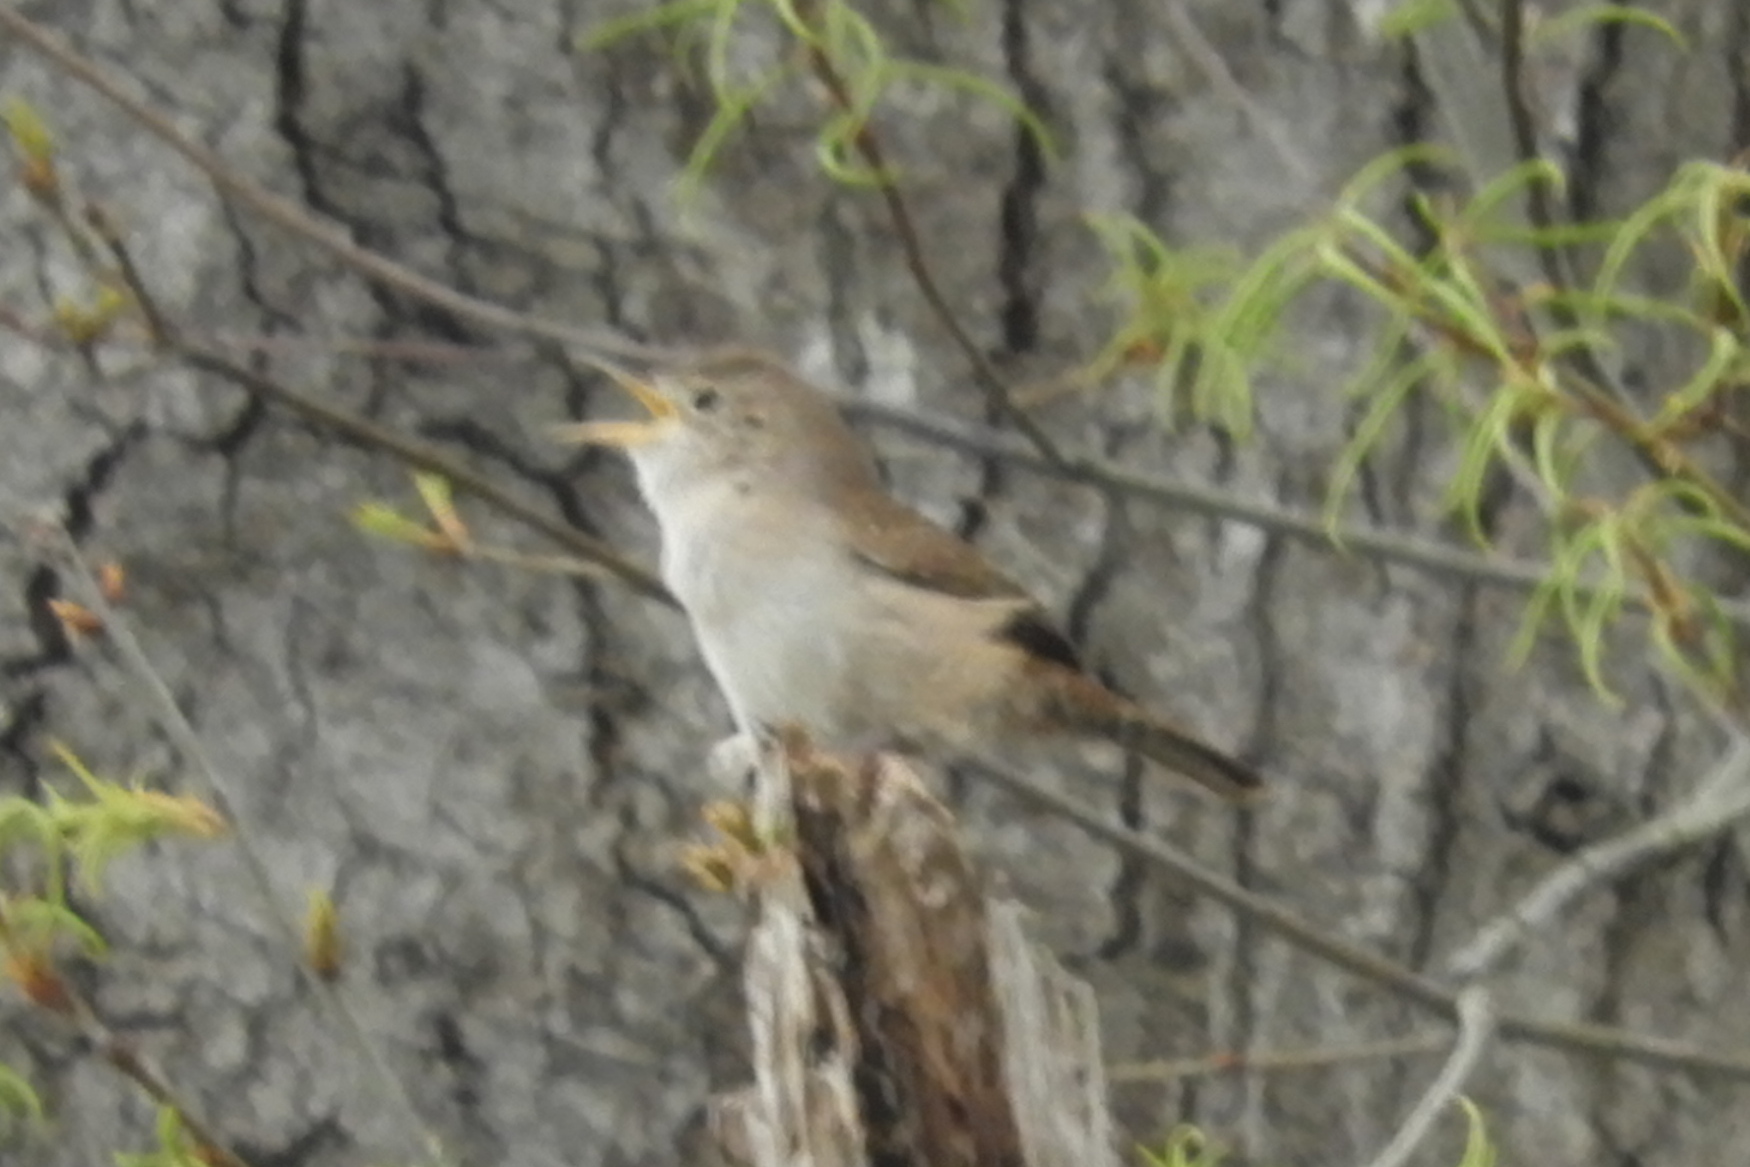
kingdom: Animalia
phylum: Chordata
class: Aves
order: Passeriformes
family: Troglodytidae
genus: Troglodytes
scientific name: Troglodytes aedon
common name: House wren
